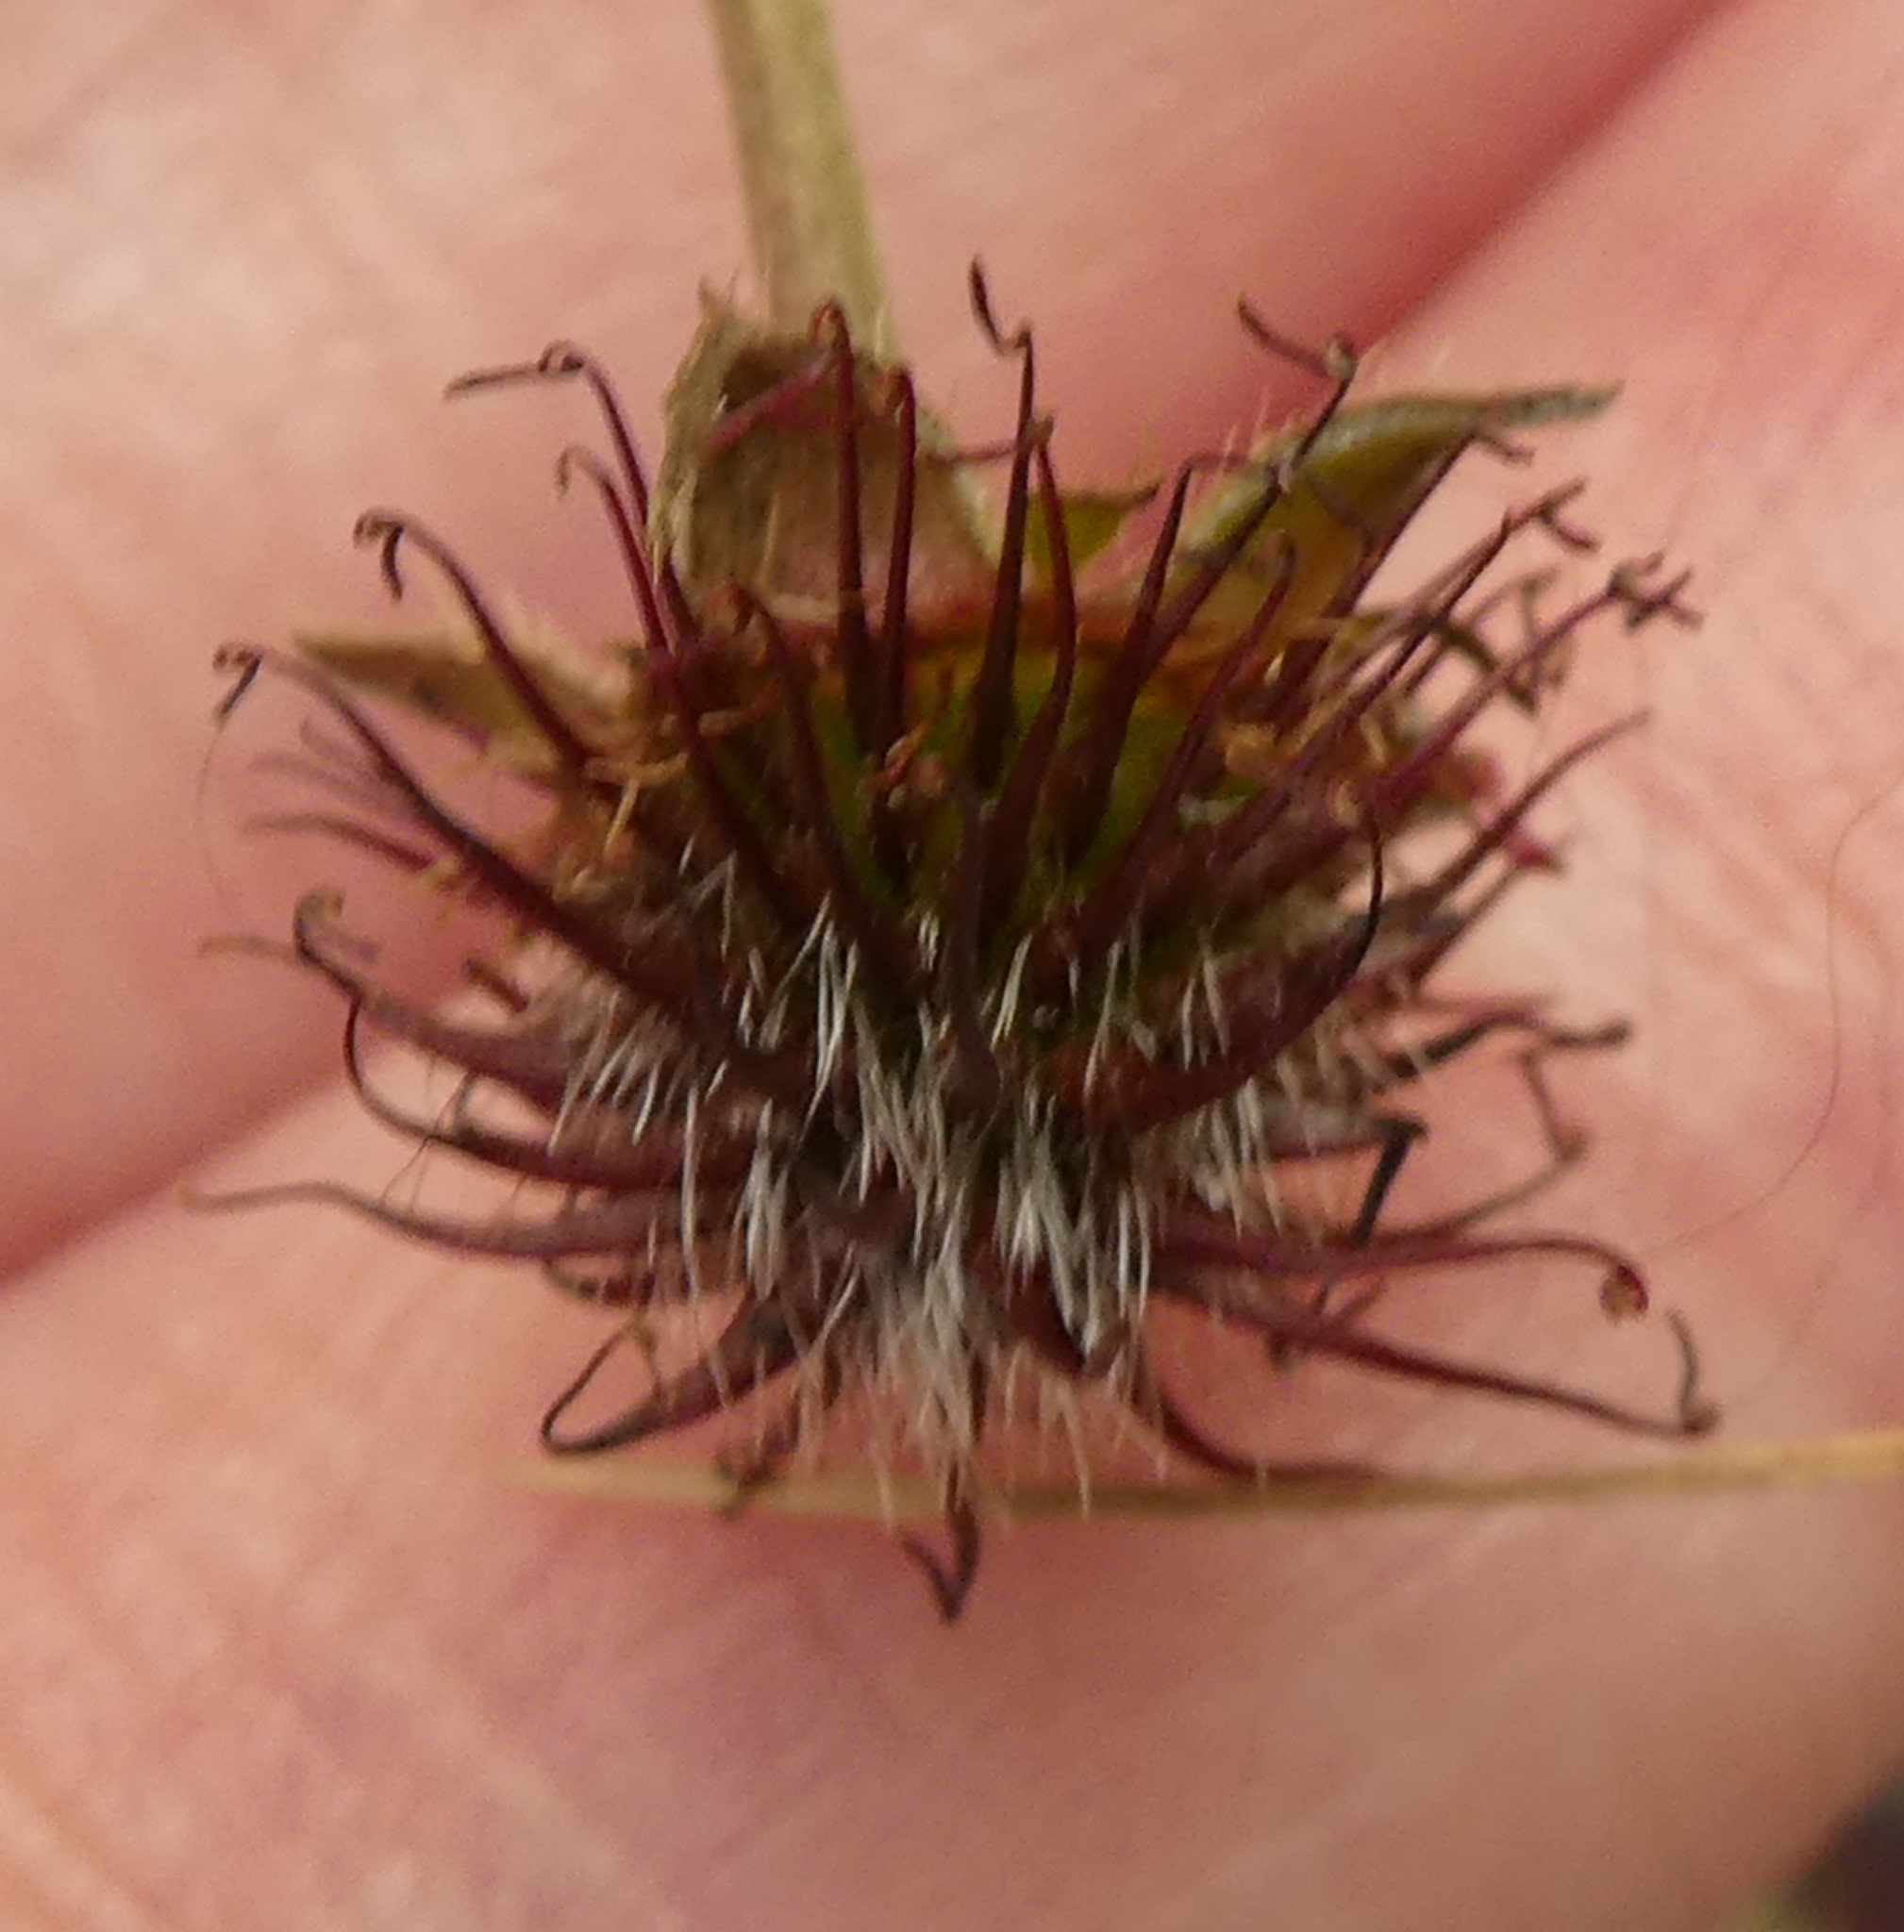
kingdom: Plantae
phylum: Tracheophyta
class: Magnoliopsida
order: Rosales
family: Rosaceae
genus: Geum
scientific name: Geum urbanum
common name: Wood avens
